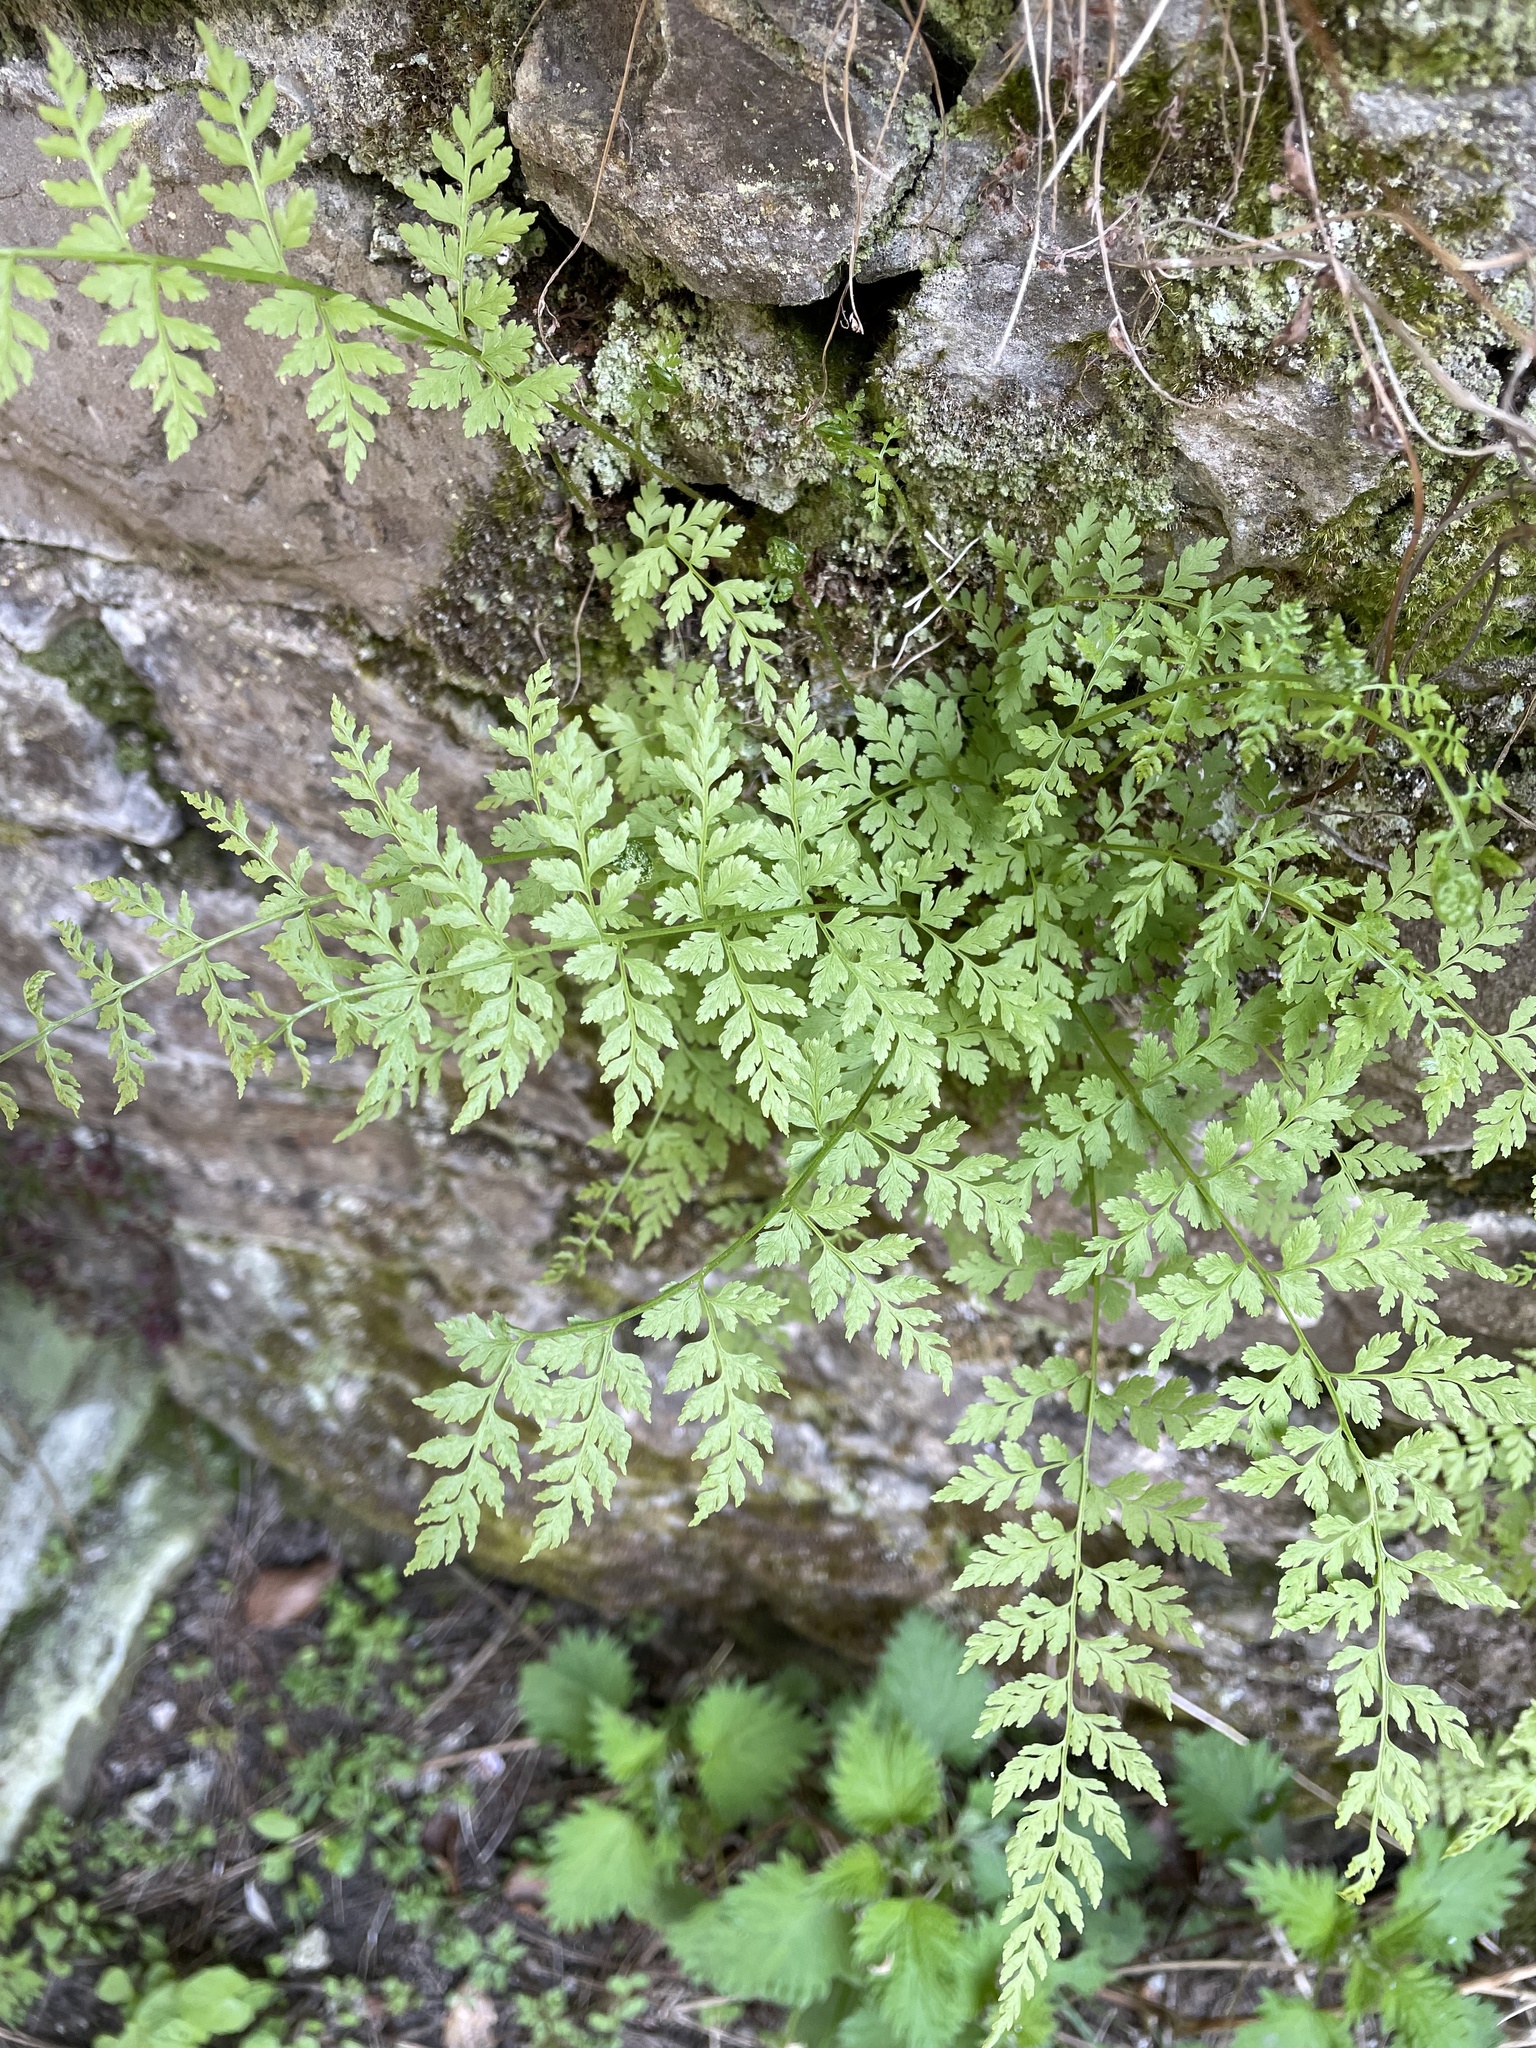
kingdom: Plantae
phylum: Tracheophyta
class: Polypodiopsida
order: Polypodiales
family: Cystopteridaceae
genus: Cystopteris
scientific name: Cystopteris fragilis
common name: Brittle bladder fern
